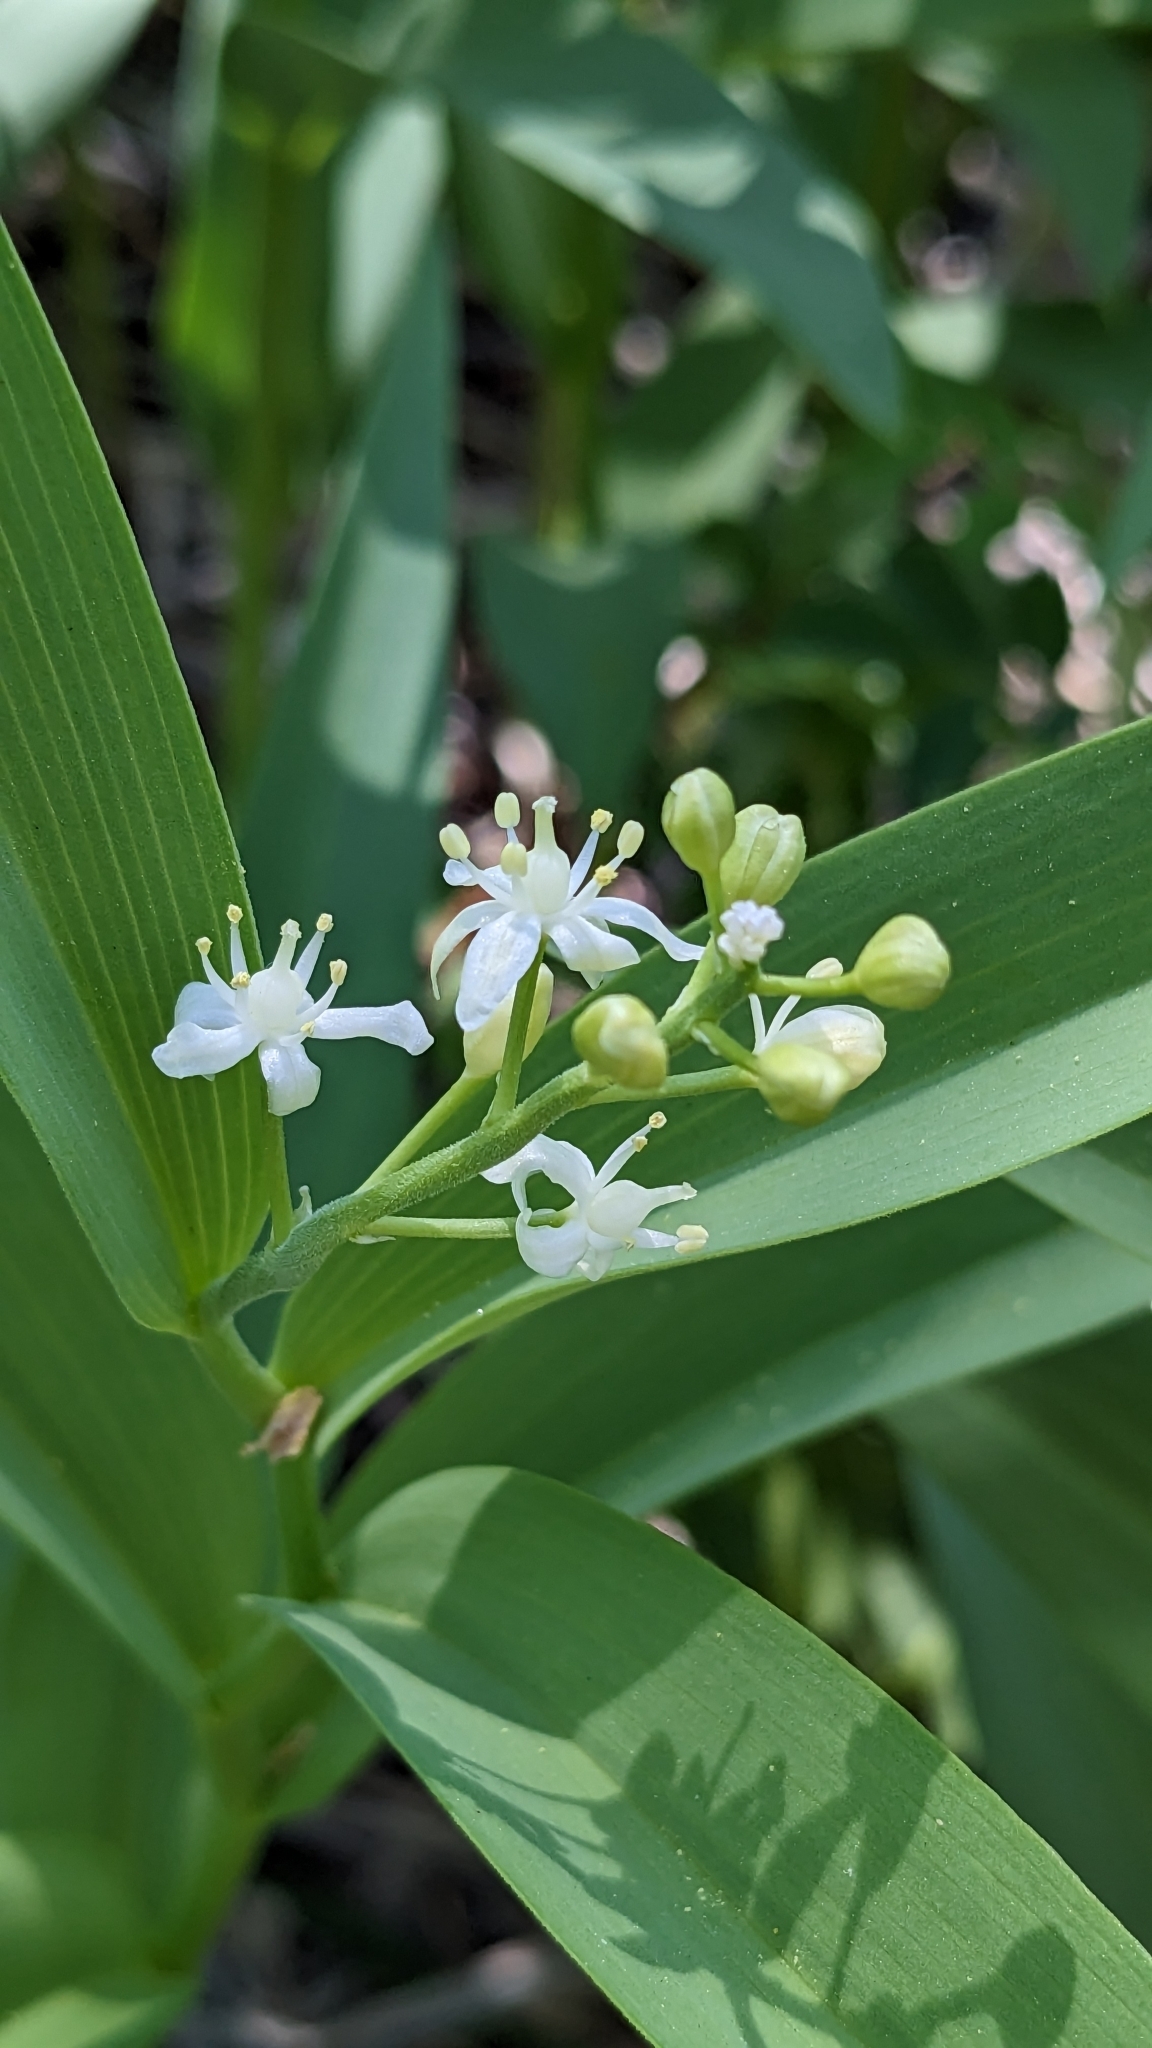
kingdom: Plantae
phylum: Tracheophyta
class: Liliopsida
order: Asparagales
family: Asparagaceae
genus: Maianthemum
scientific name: Maianthemum stellatum
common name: Little false solomon's seal
